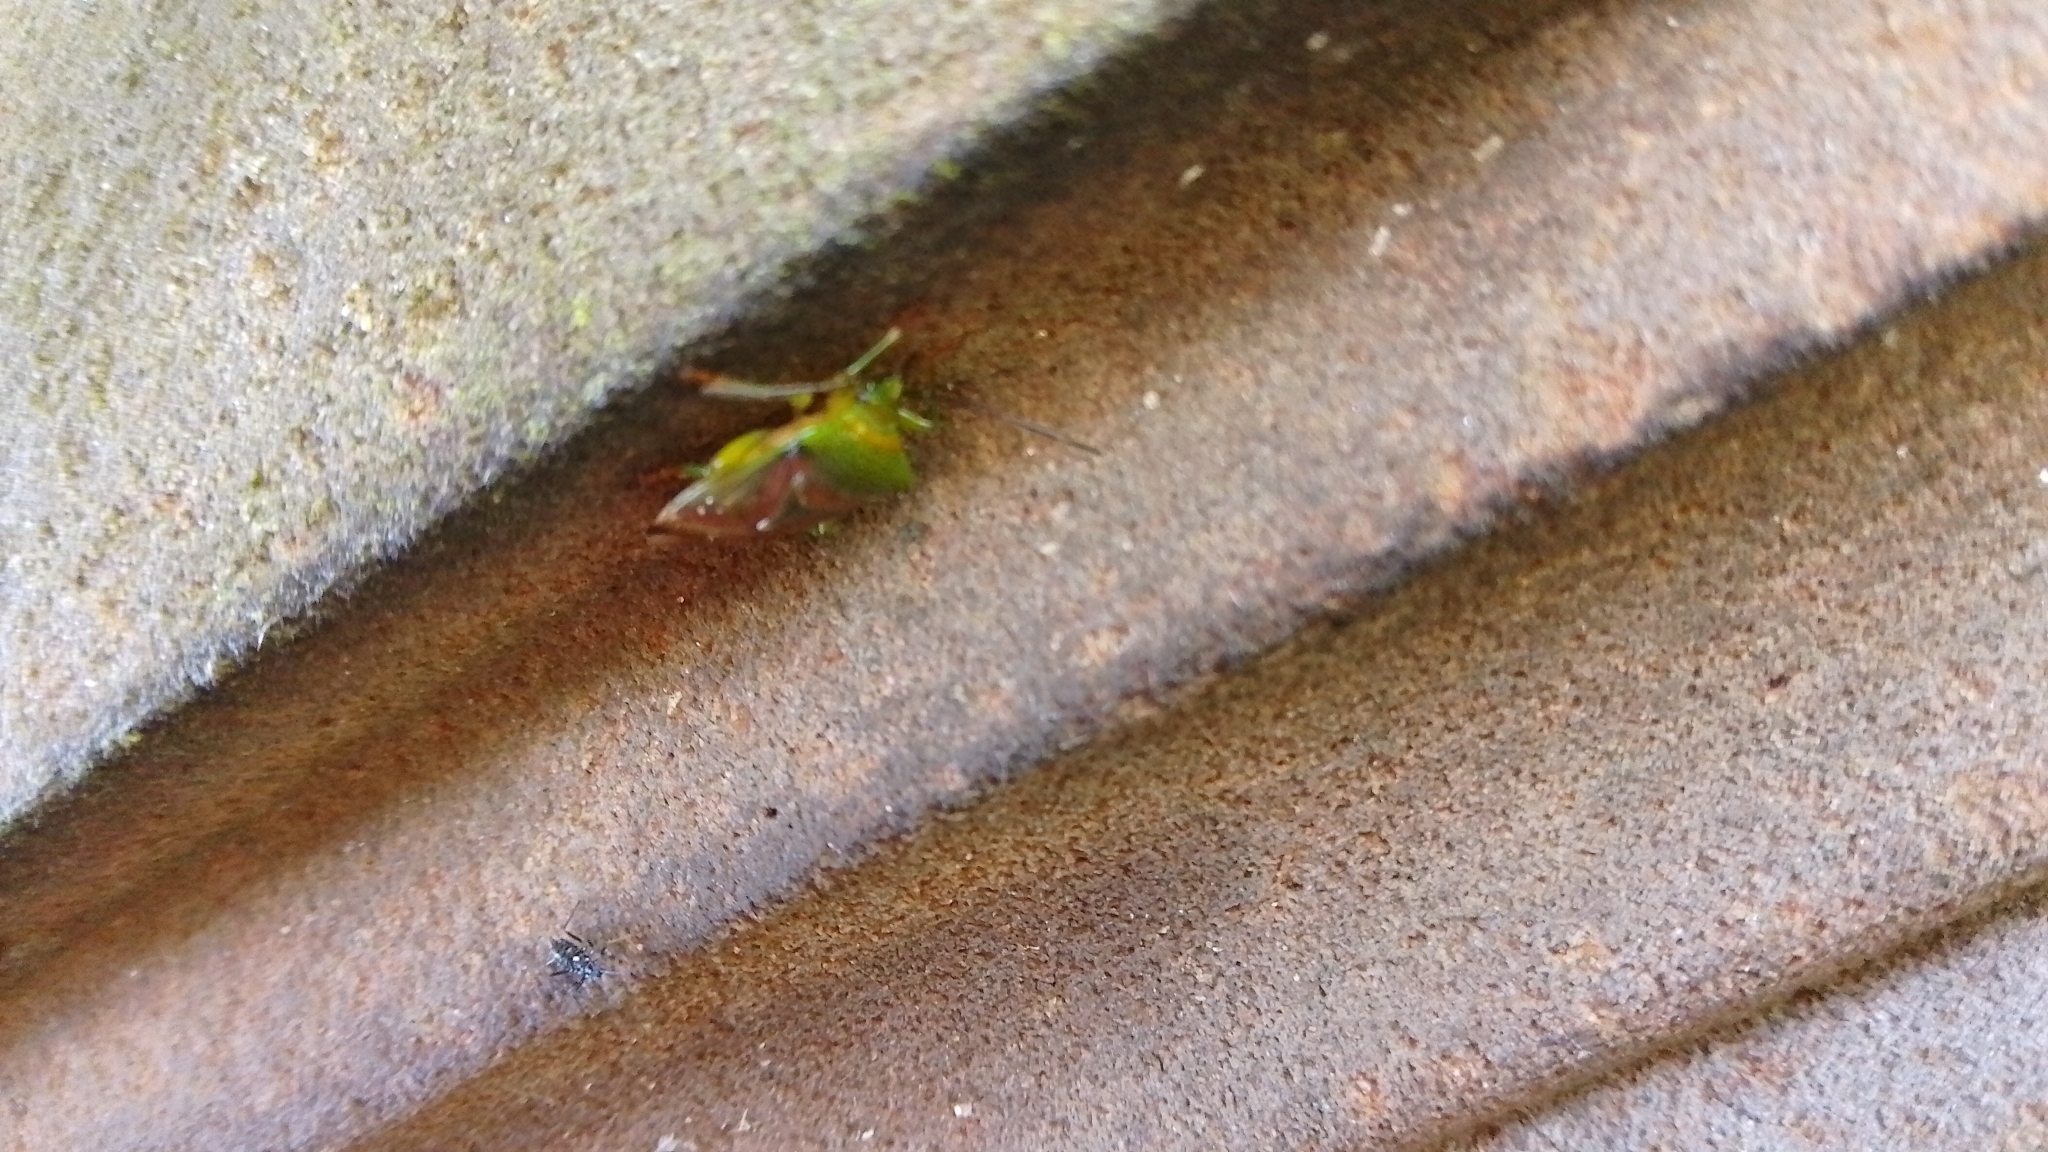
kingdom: Animalia
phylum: Arthropoda
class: Insecta
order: Hemiptera
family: Acanthosomatidae
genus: Elasmostethus
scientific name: Elasmostethus interstinctus
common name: Birch shieldbug
